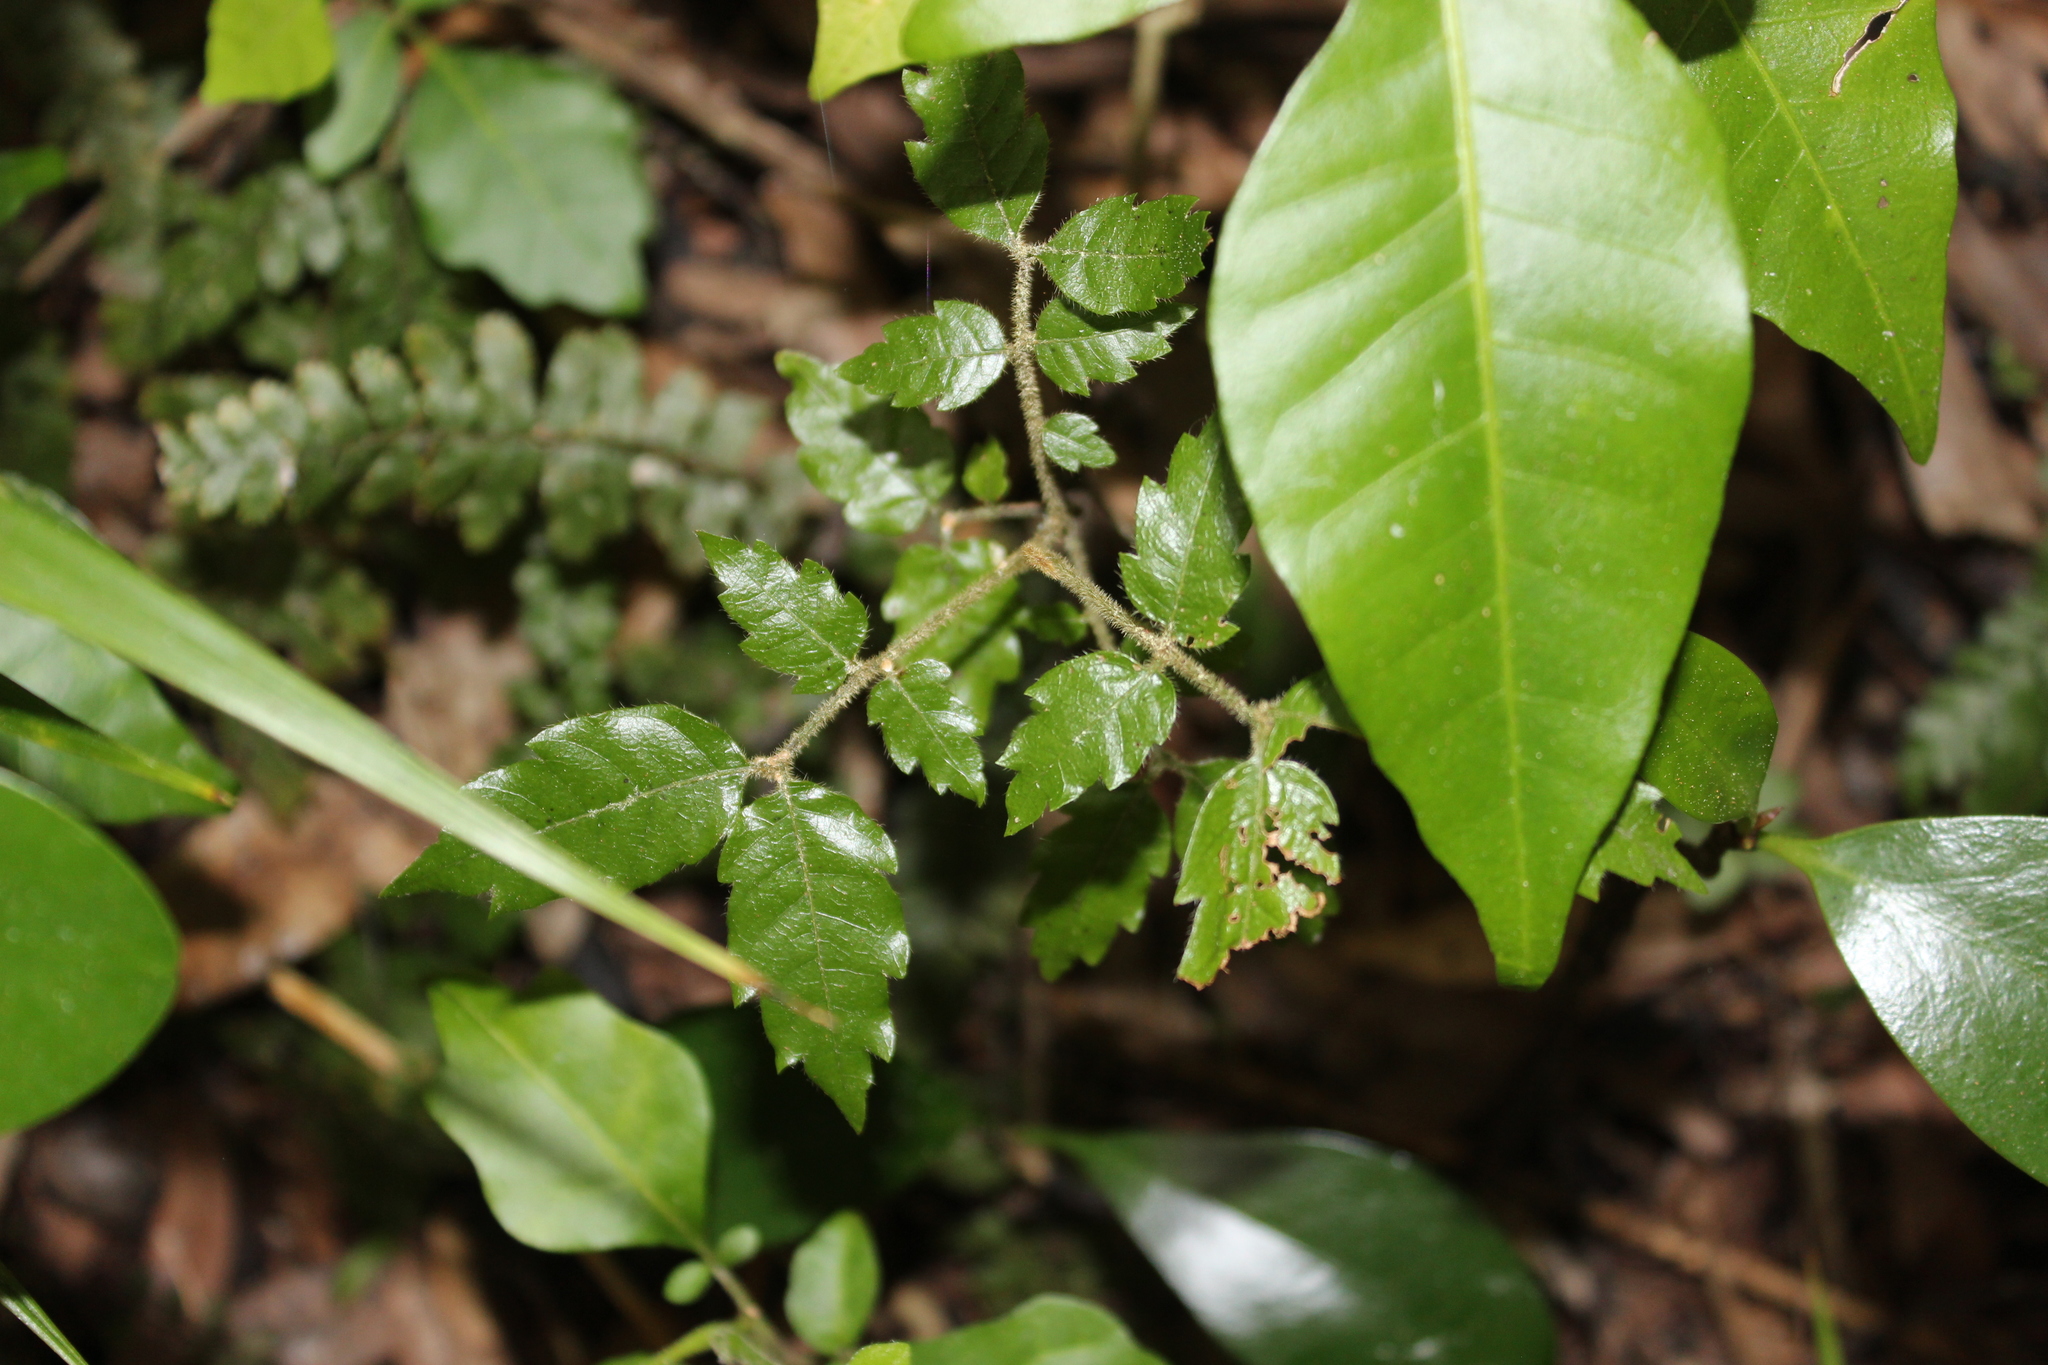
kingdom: Plantae
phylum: Tracheophyta
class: Magnoliopsida
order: Sapindales
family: Sapindaceae
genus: Alectryon
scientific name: Alectryon excelsus
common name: Three kings titoki
